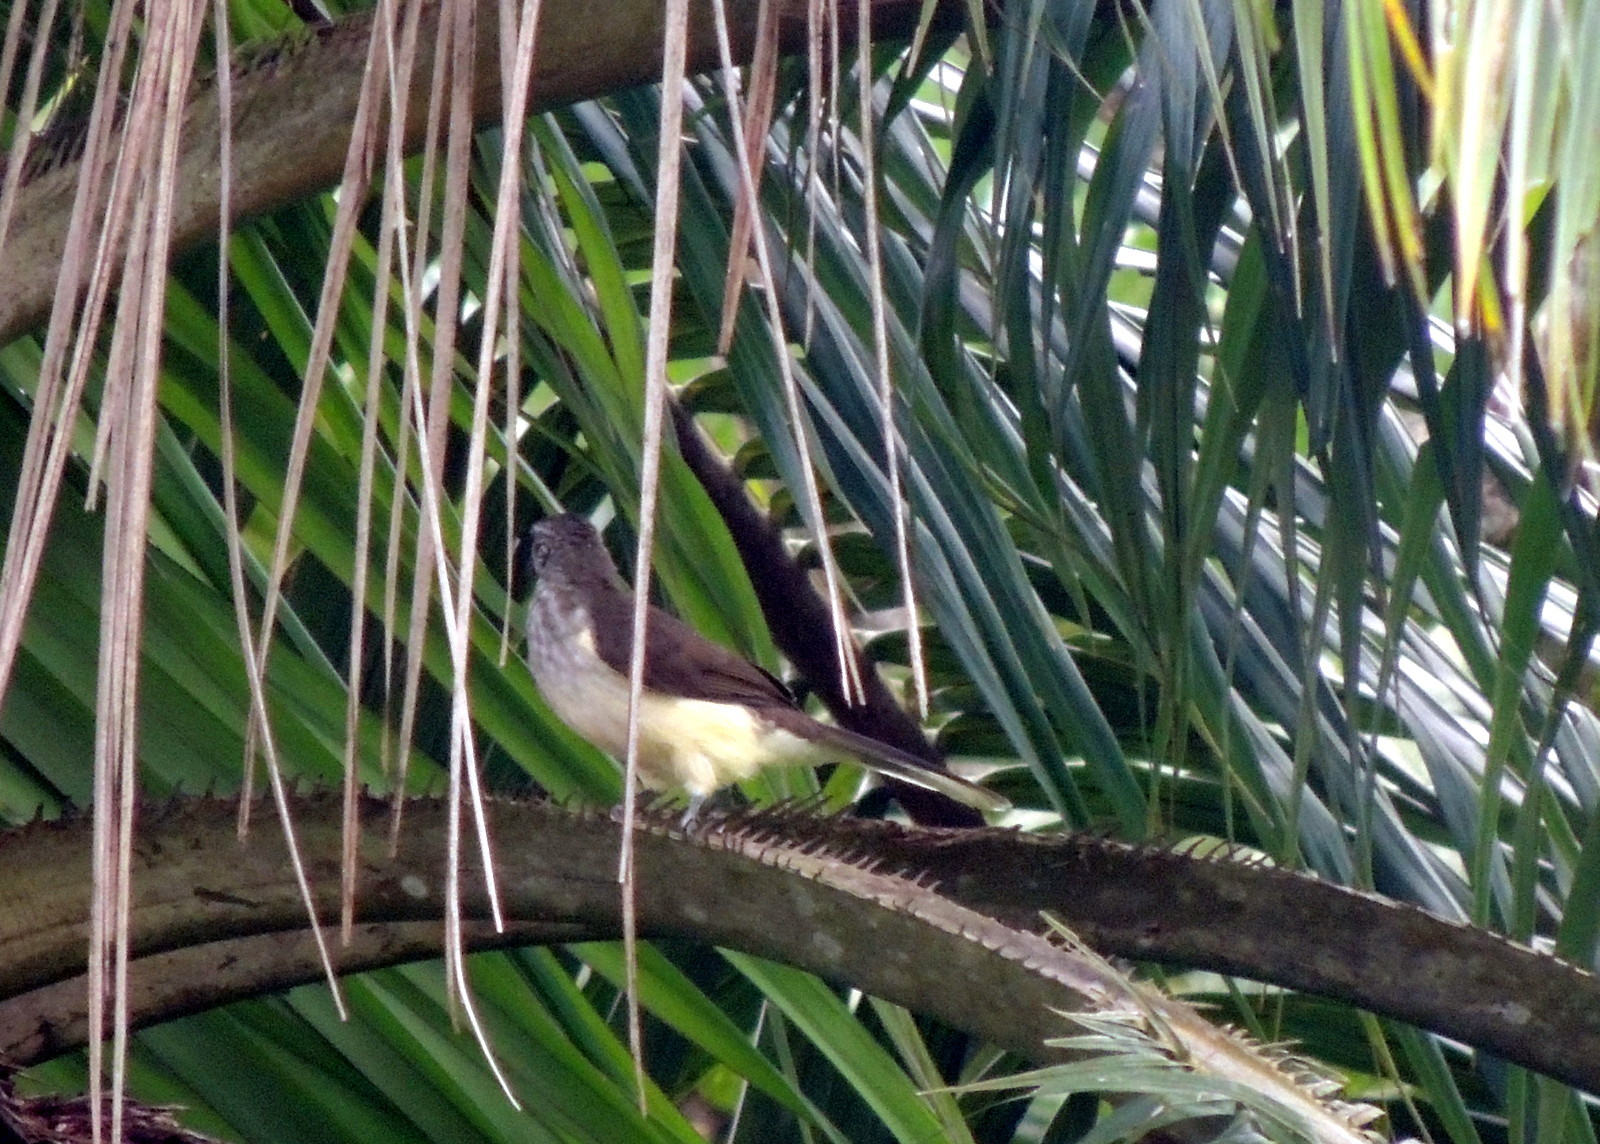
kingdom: Animalia
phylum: Chordata
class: Aves
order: Passeriformes
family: Pycnonotidae
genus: Thescelocichla
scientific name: Thescelocichla leucopleura
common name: Swamp palm bulbul
